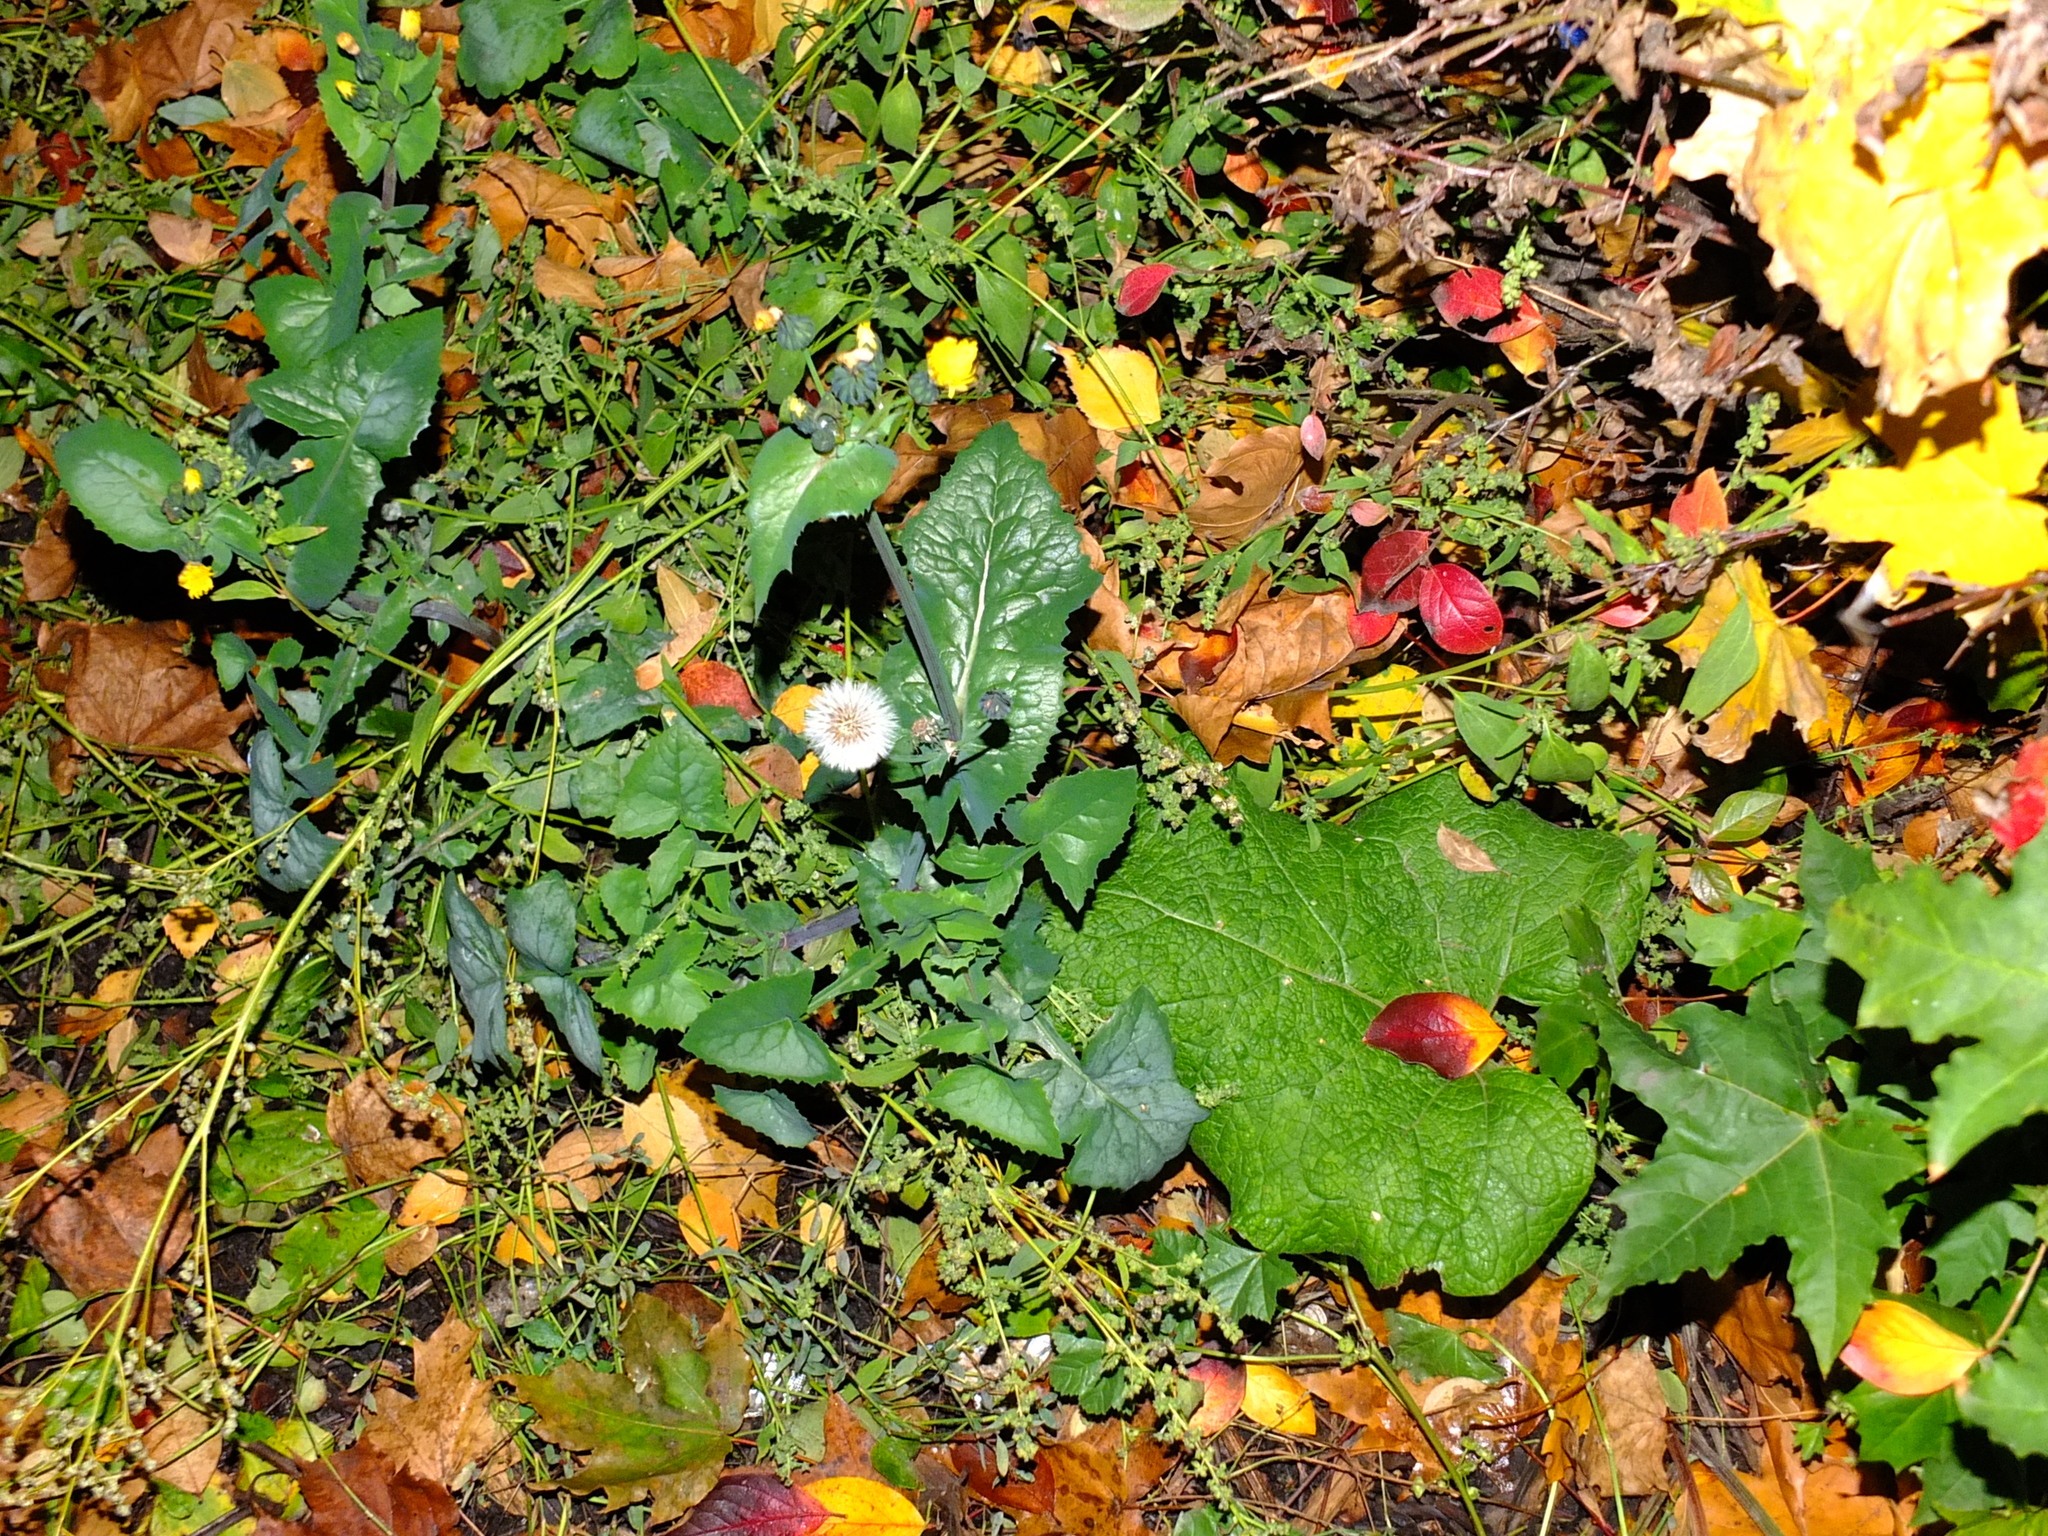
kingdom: Plantae
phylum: Tracheophyta
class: Magnoliopsida
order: Asterales
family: Asteraceae
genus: Sonchus
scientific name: Sonchus oleraceus
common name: Common sowthistle
